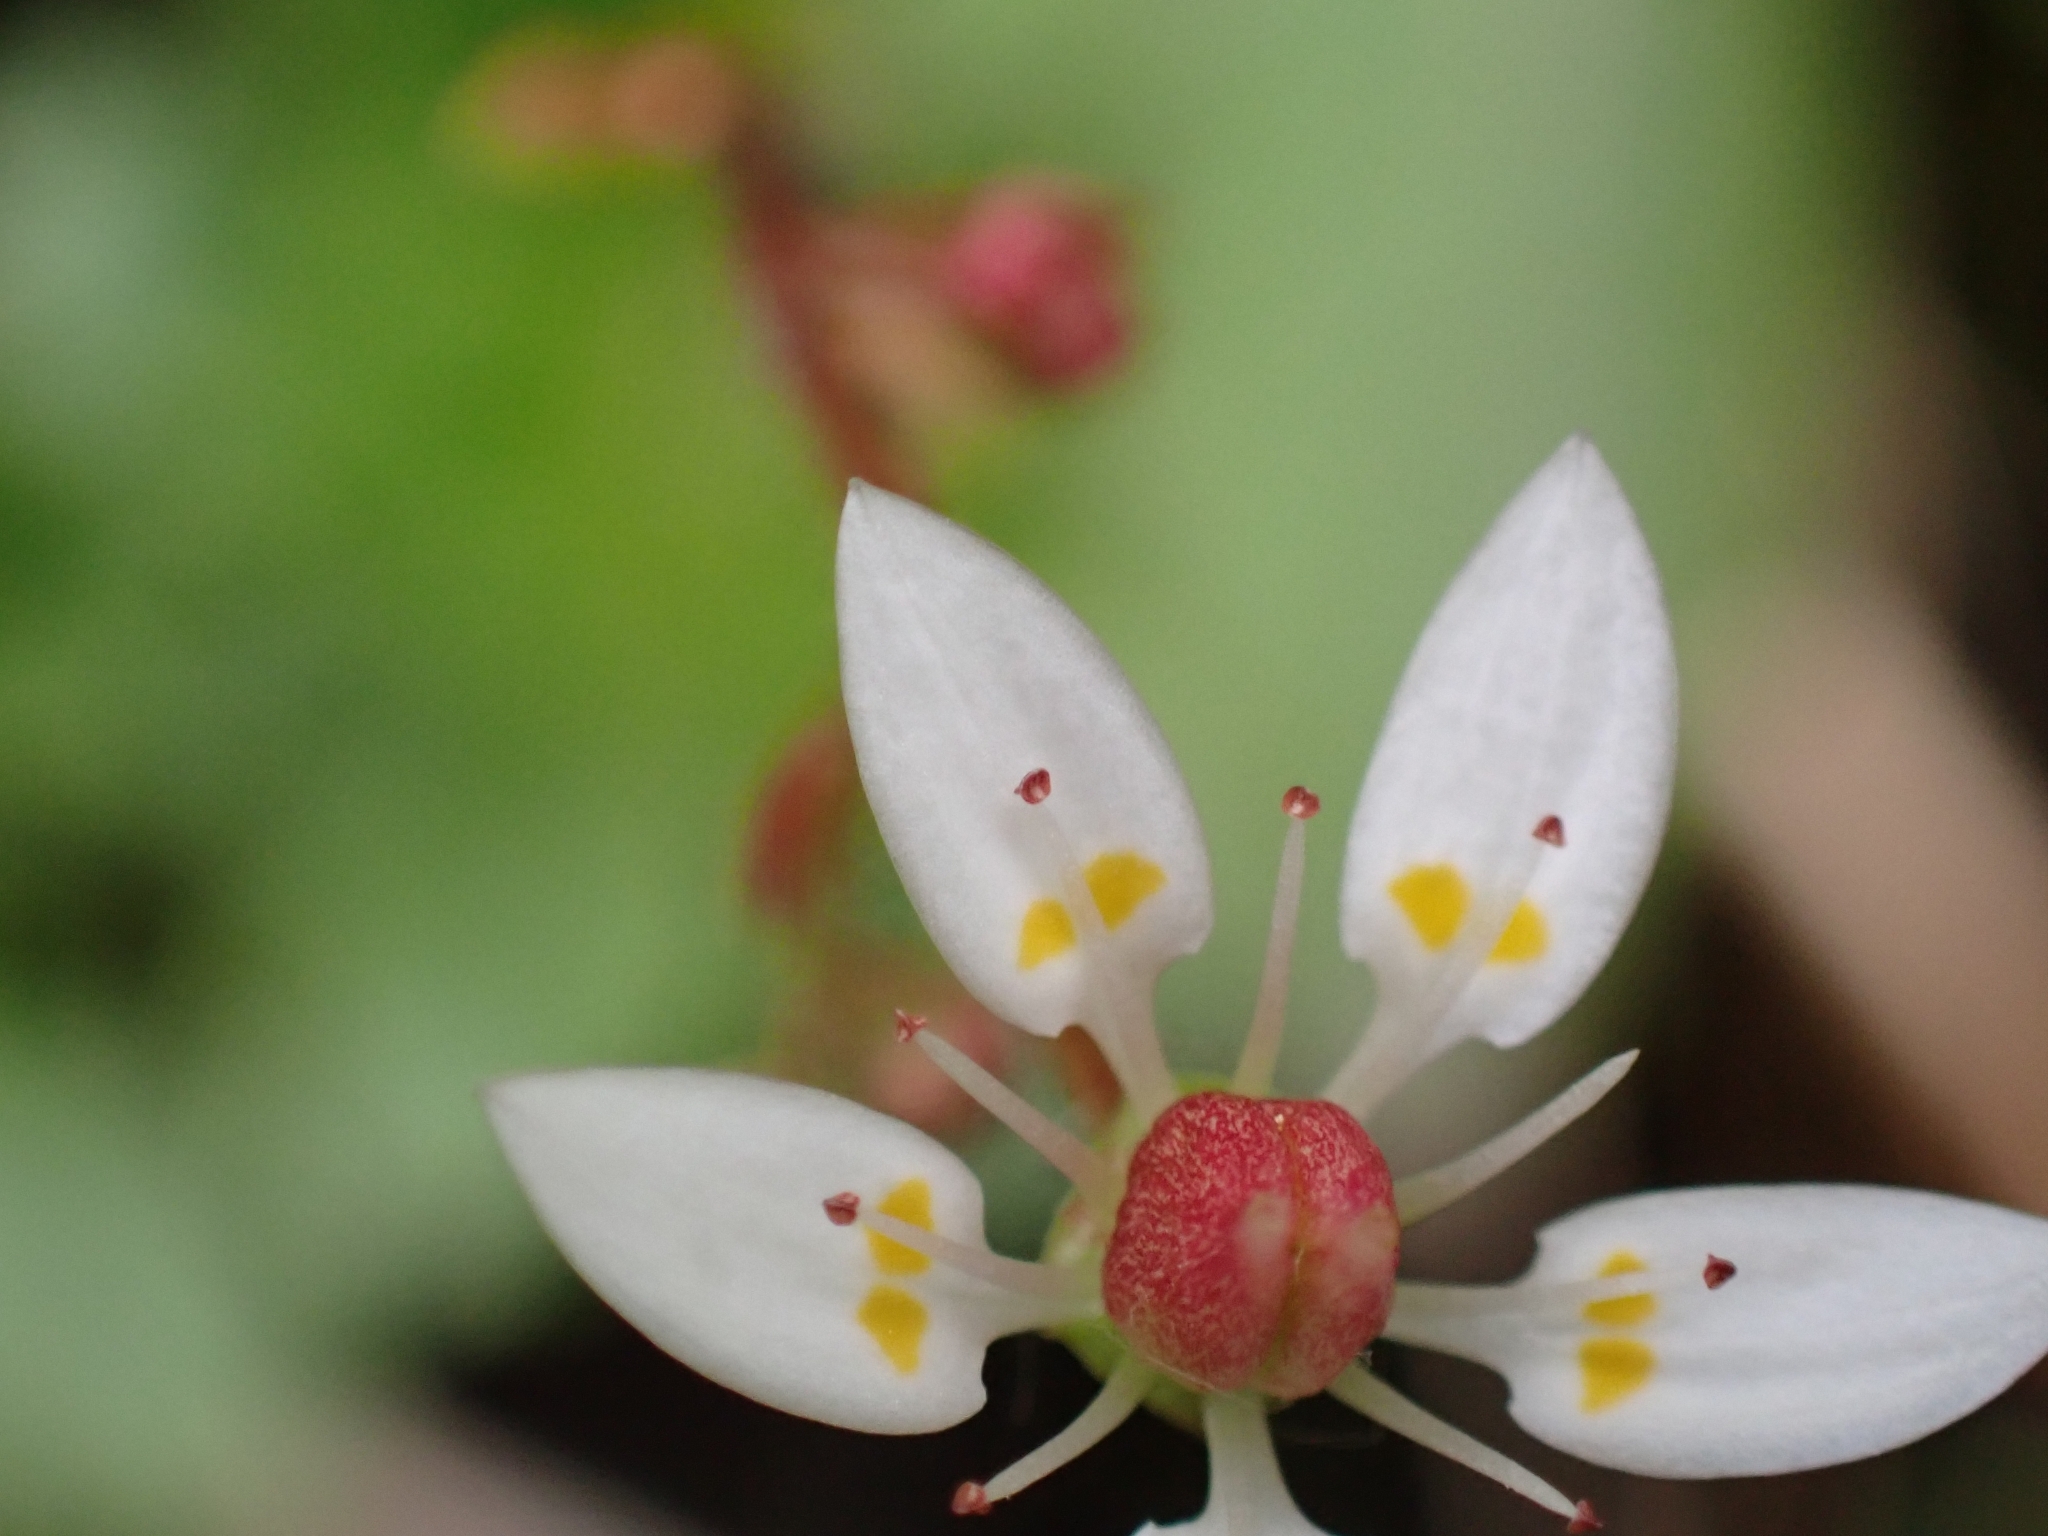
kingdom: Plantae
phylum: Tracheophyta
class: Magnoliopsida
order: Saxifragales
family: Saxifragaceae
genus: Micranthes
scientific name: Micranthes stellaris
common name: Starry saxifrage
